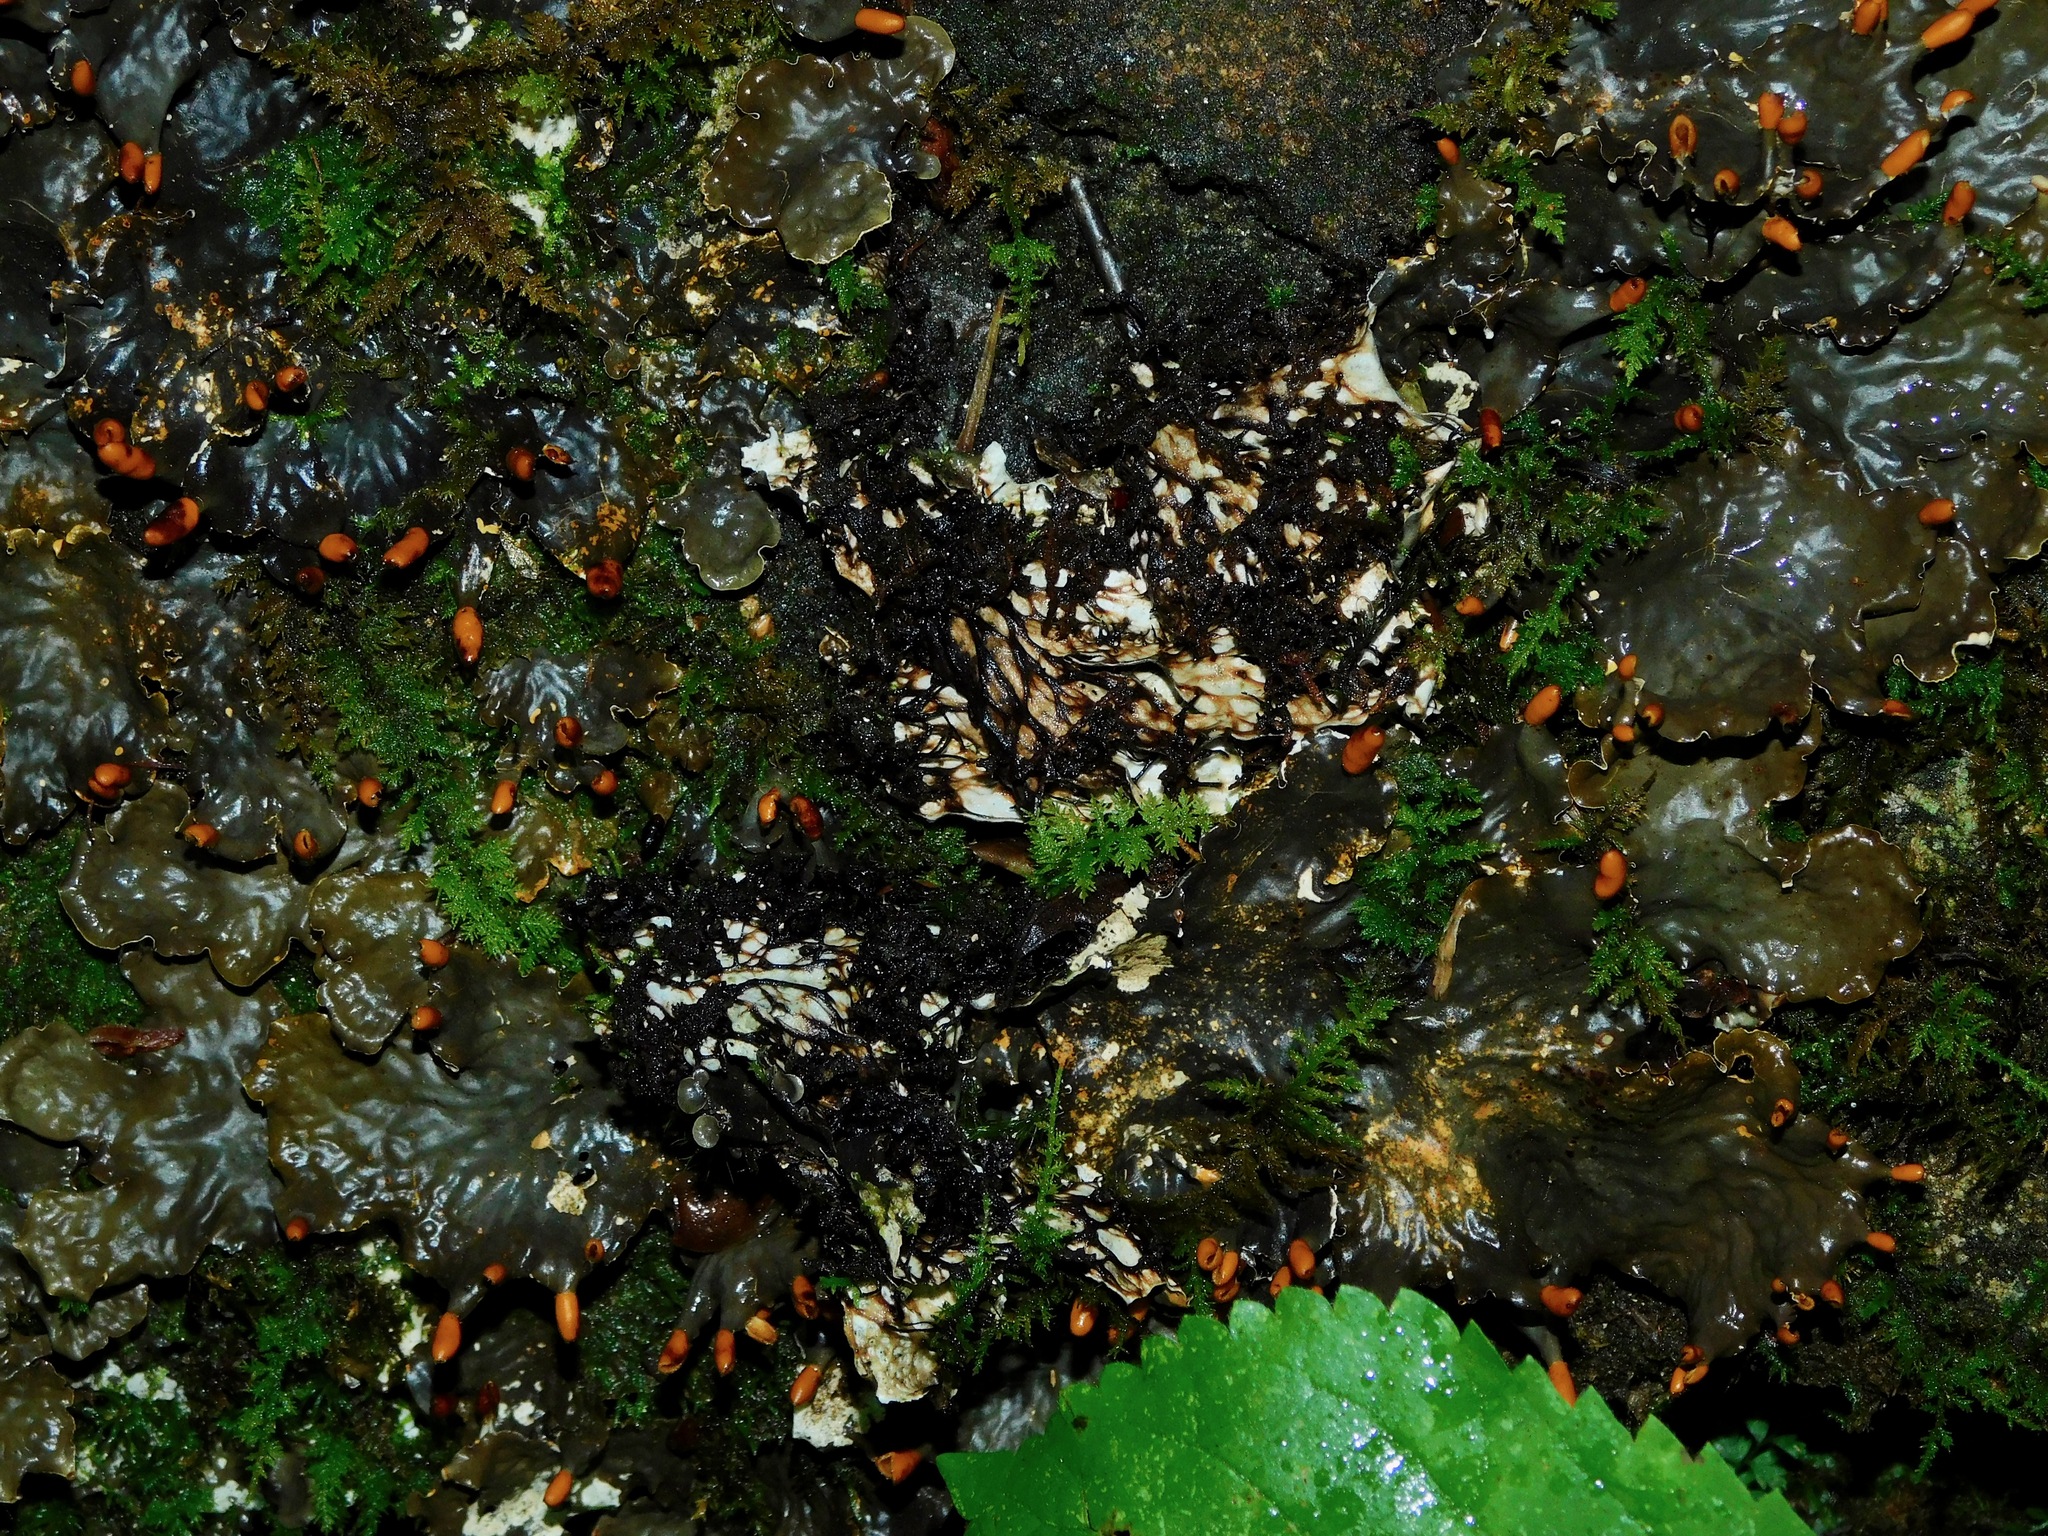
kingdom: Fungi
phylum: Ascomycota
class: Lecanoromycetes
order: Peltigerales
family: Peltigeraceae
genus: Peltigera
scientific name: Peltigera polydactylon
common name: Many-fruited pelt lichen
